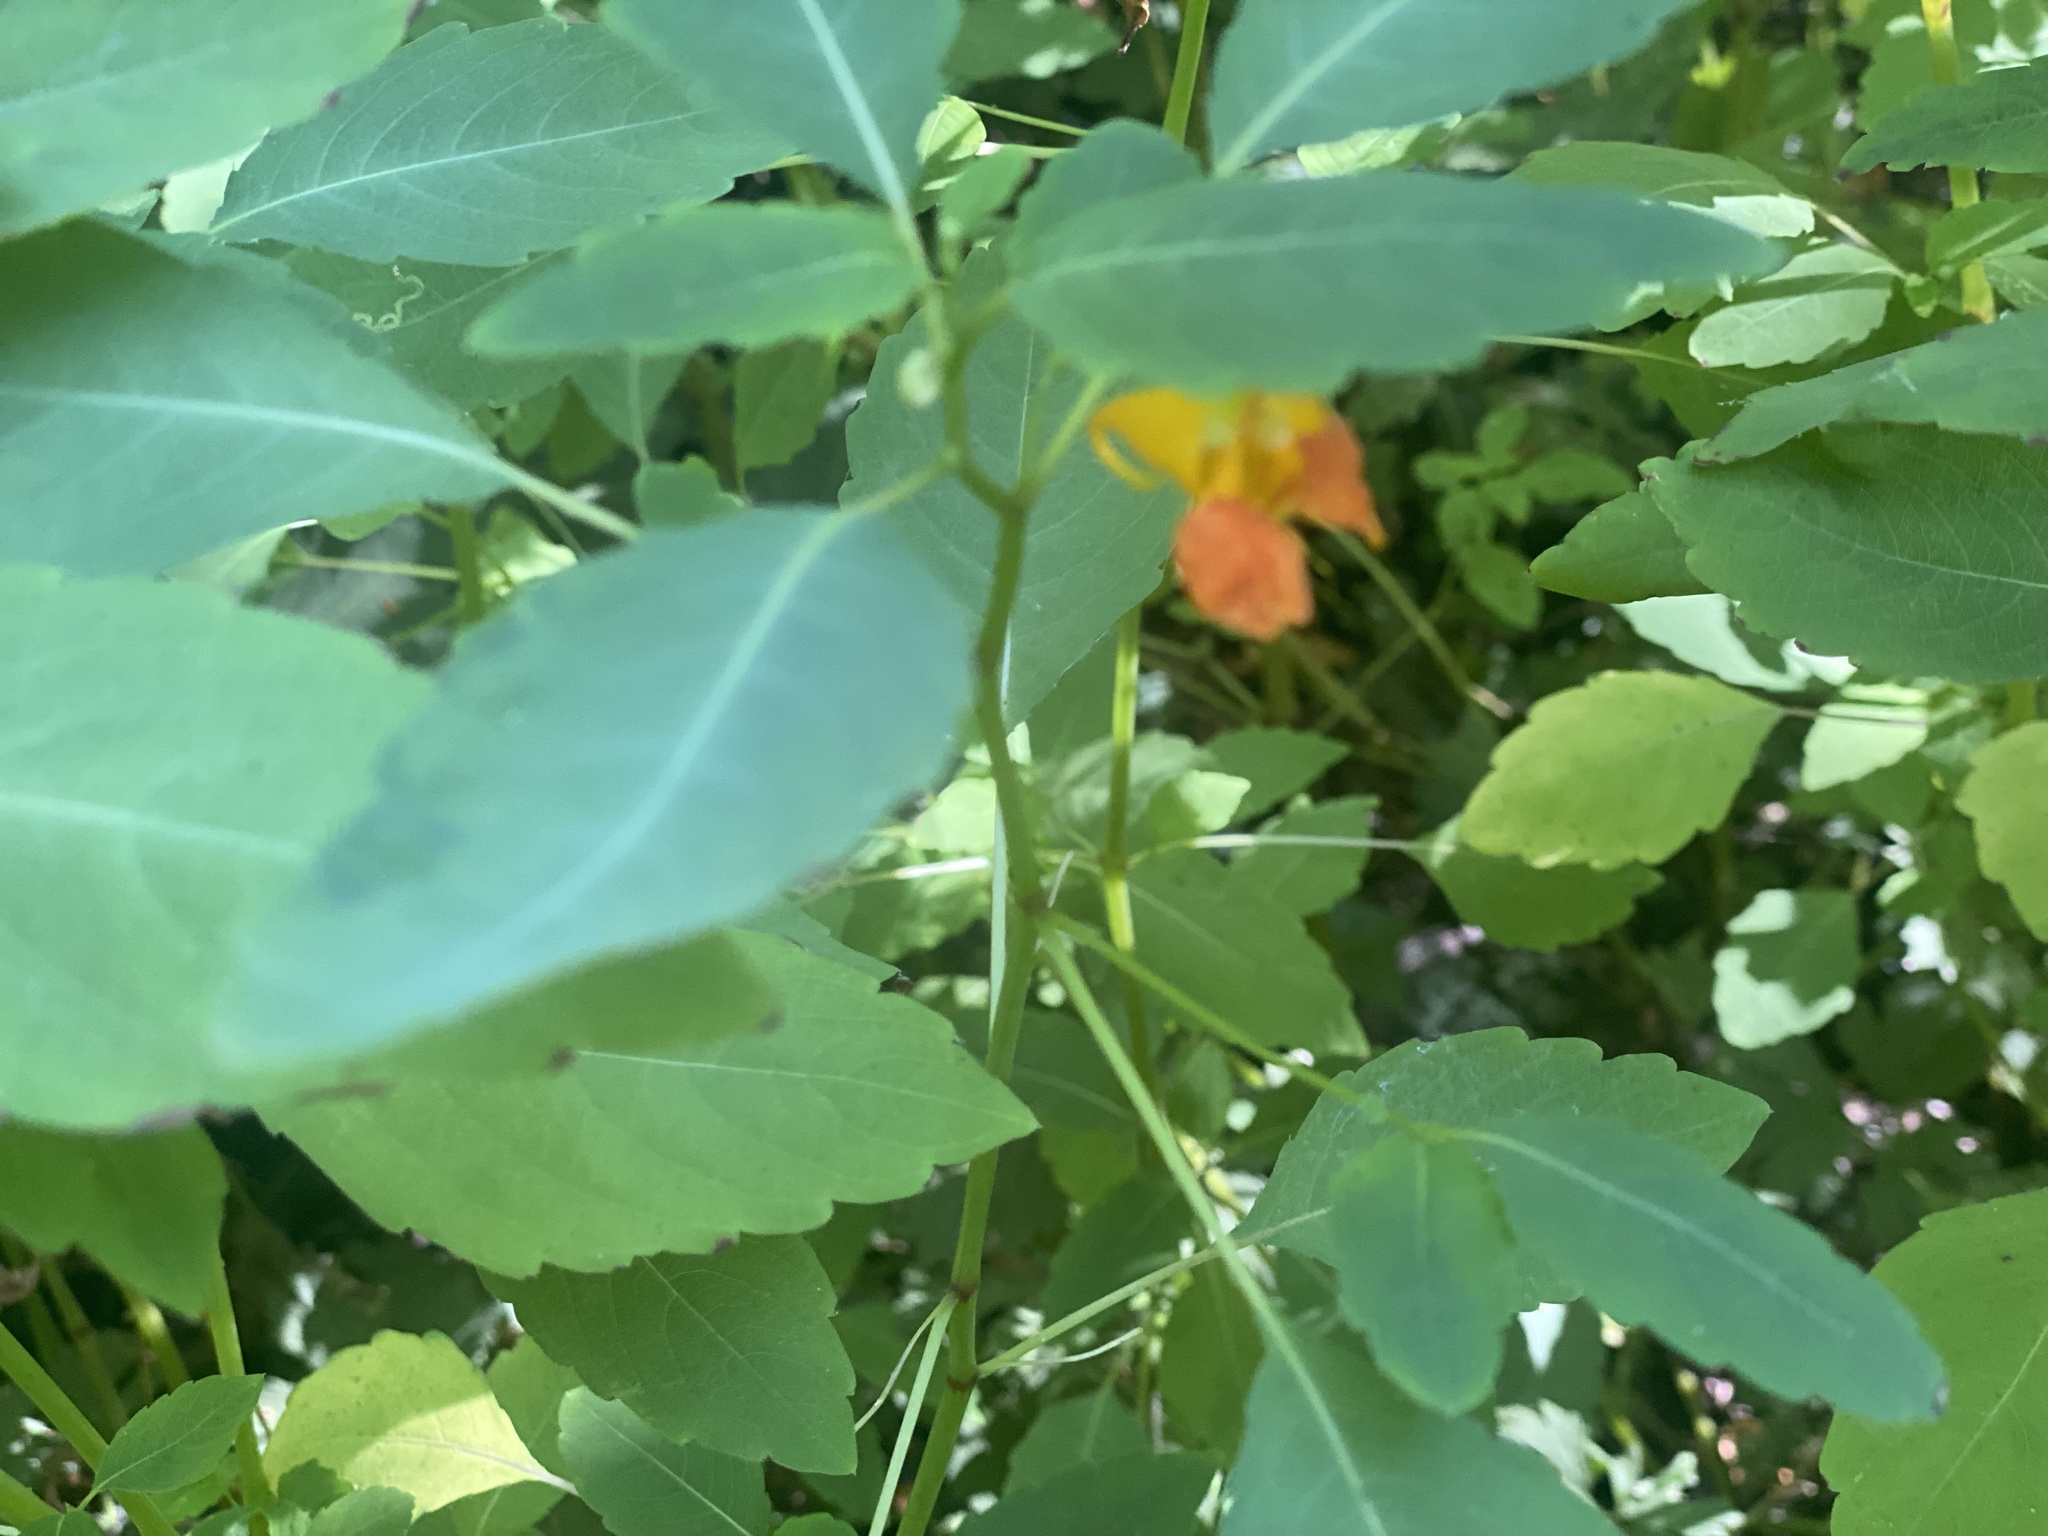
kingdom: Plantae
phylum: Tracheophyta
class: Magnoliopsida
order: Ericales
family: Balsaminaceae
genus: Impatiens
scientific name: Impatiens capensis
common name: Orange balsam
